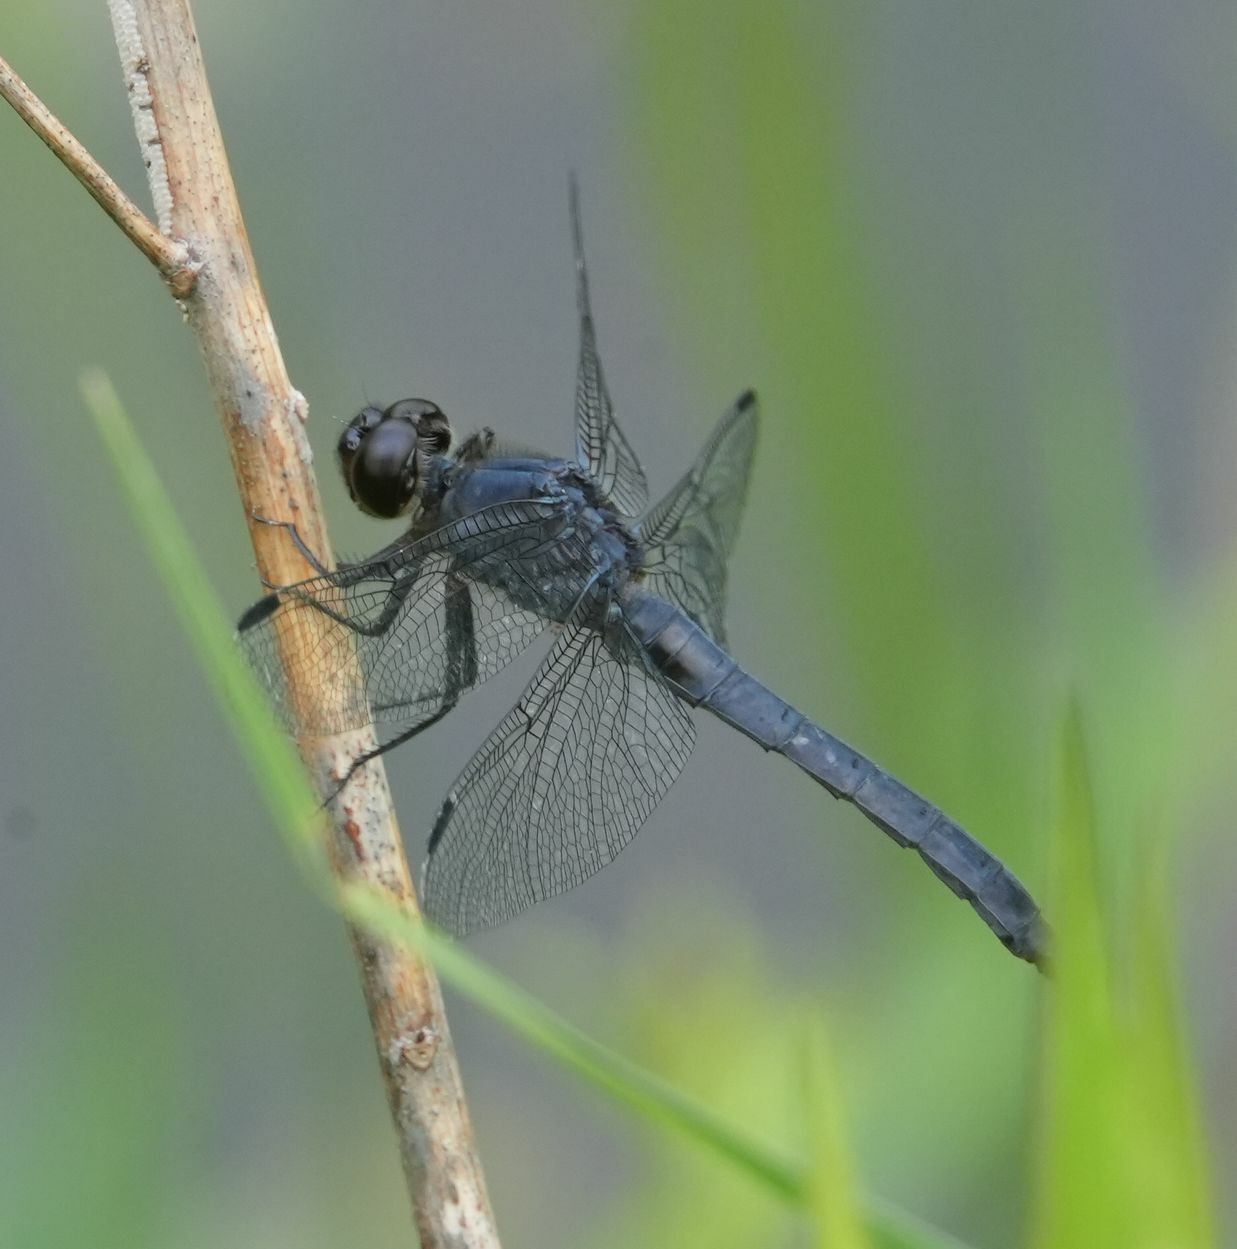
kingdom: Animalia
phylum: Arthropoda
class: Insecta
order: Odonata
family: Libellulidae
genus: Libellula
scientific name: Libellula incesta
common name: Slaty skimmer
